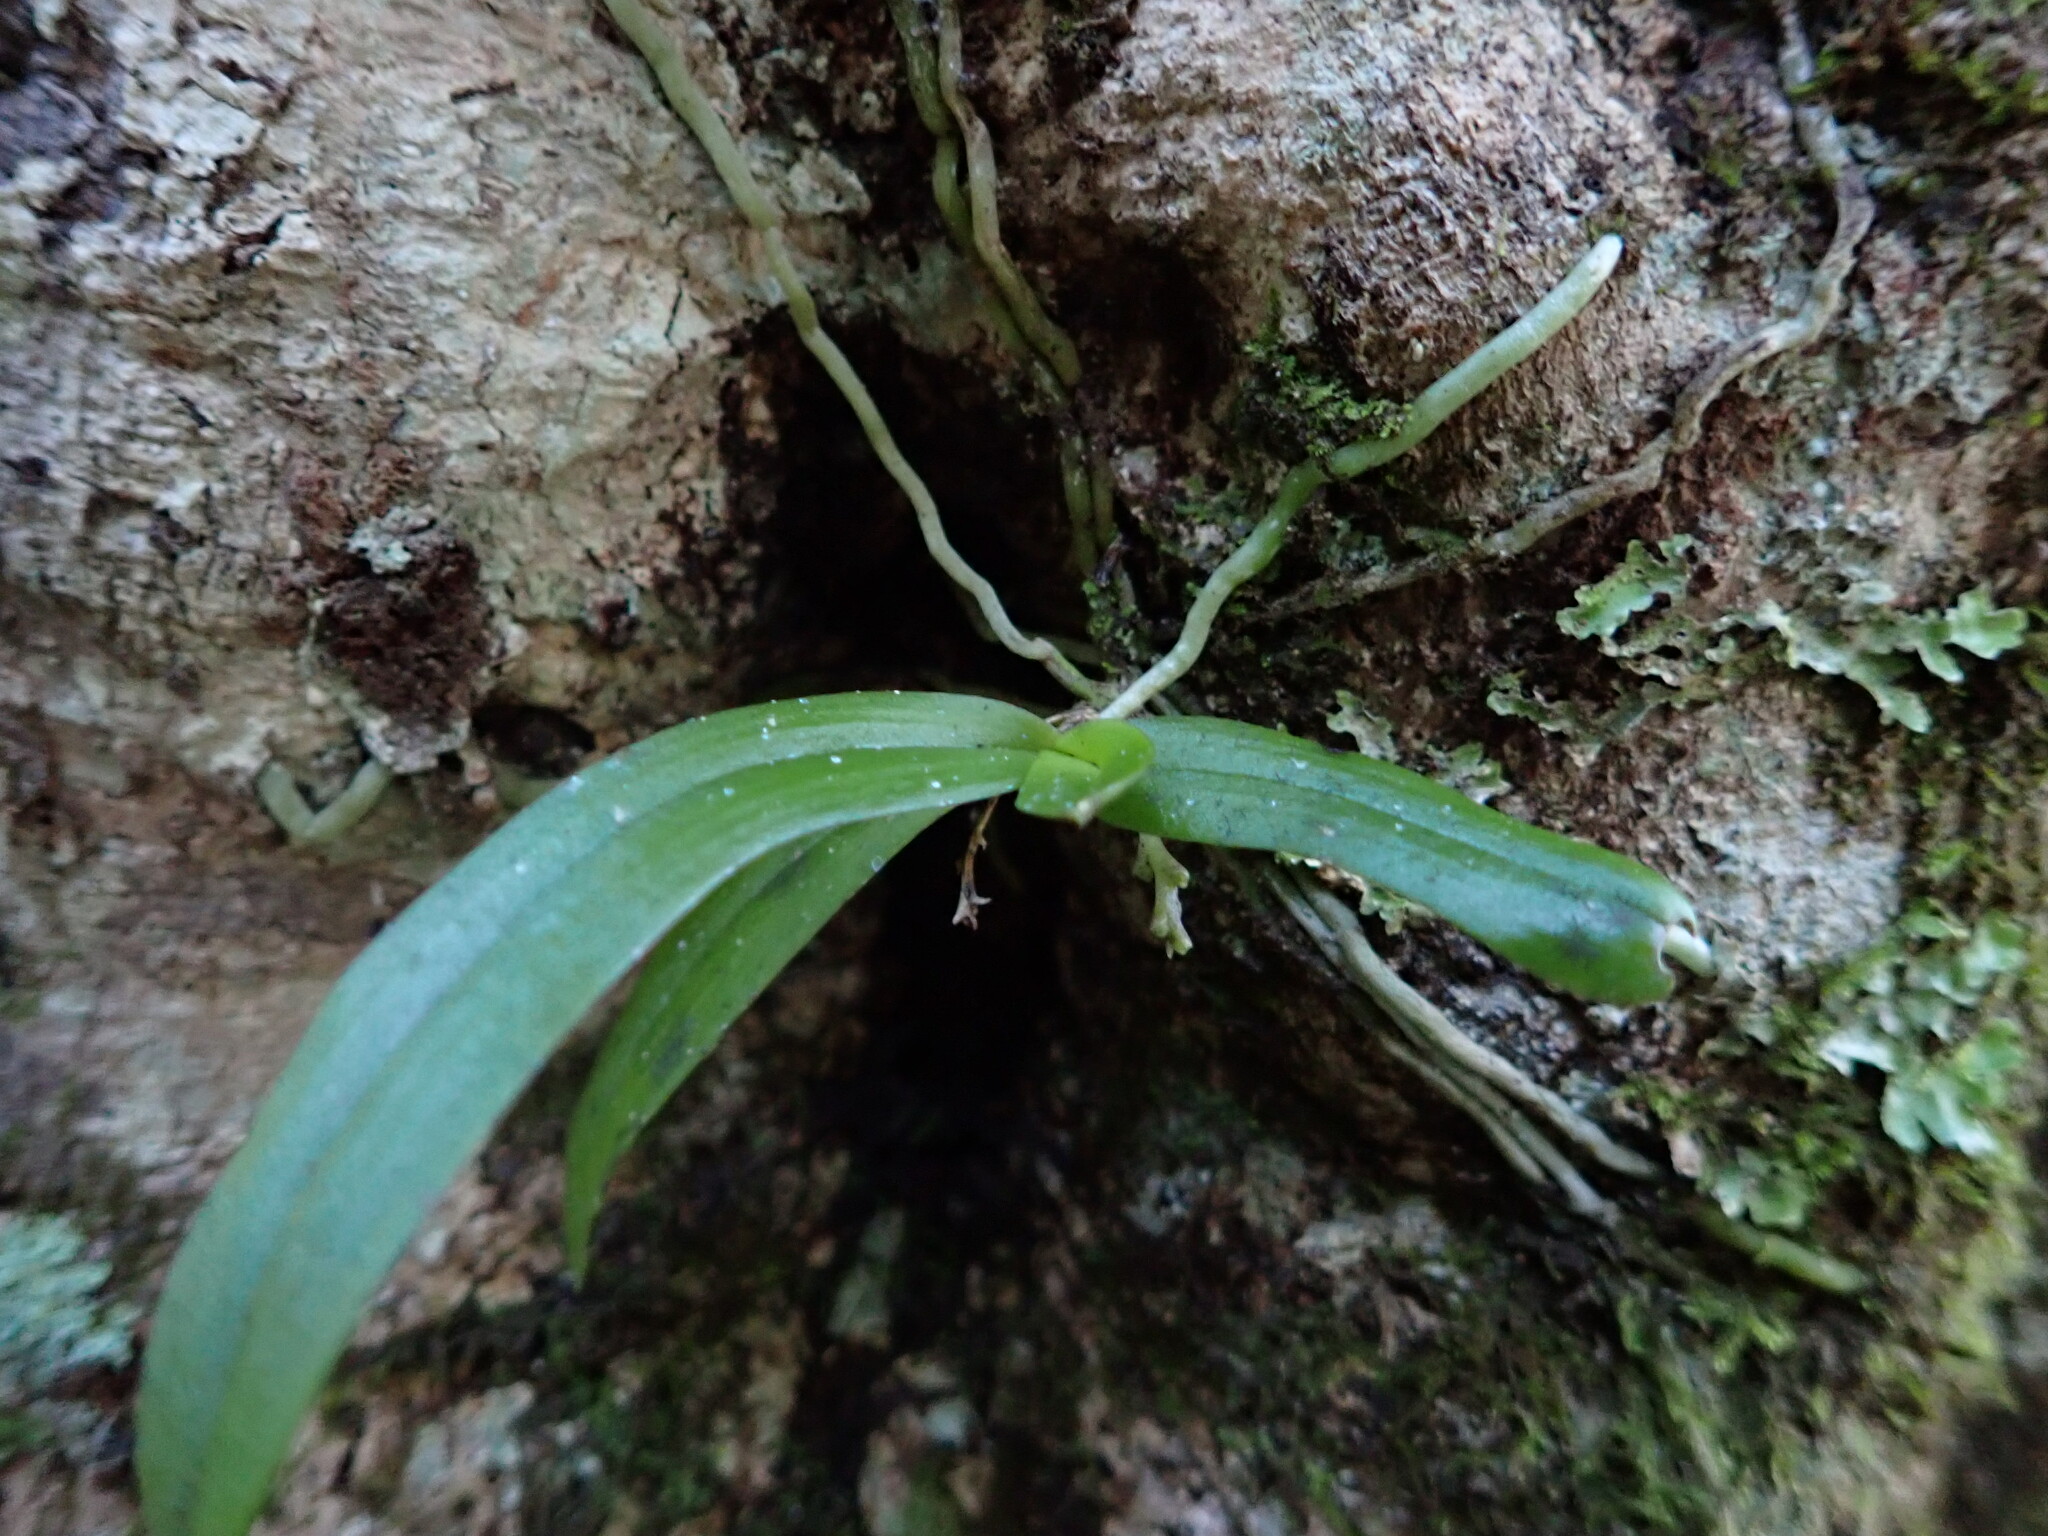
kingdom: Plantae
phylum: Tracheophyta
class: Liliopsida
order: Asparagales
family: Orchidaceae
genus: Drymoanthus
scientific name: Drymoanthus adversus
